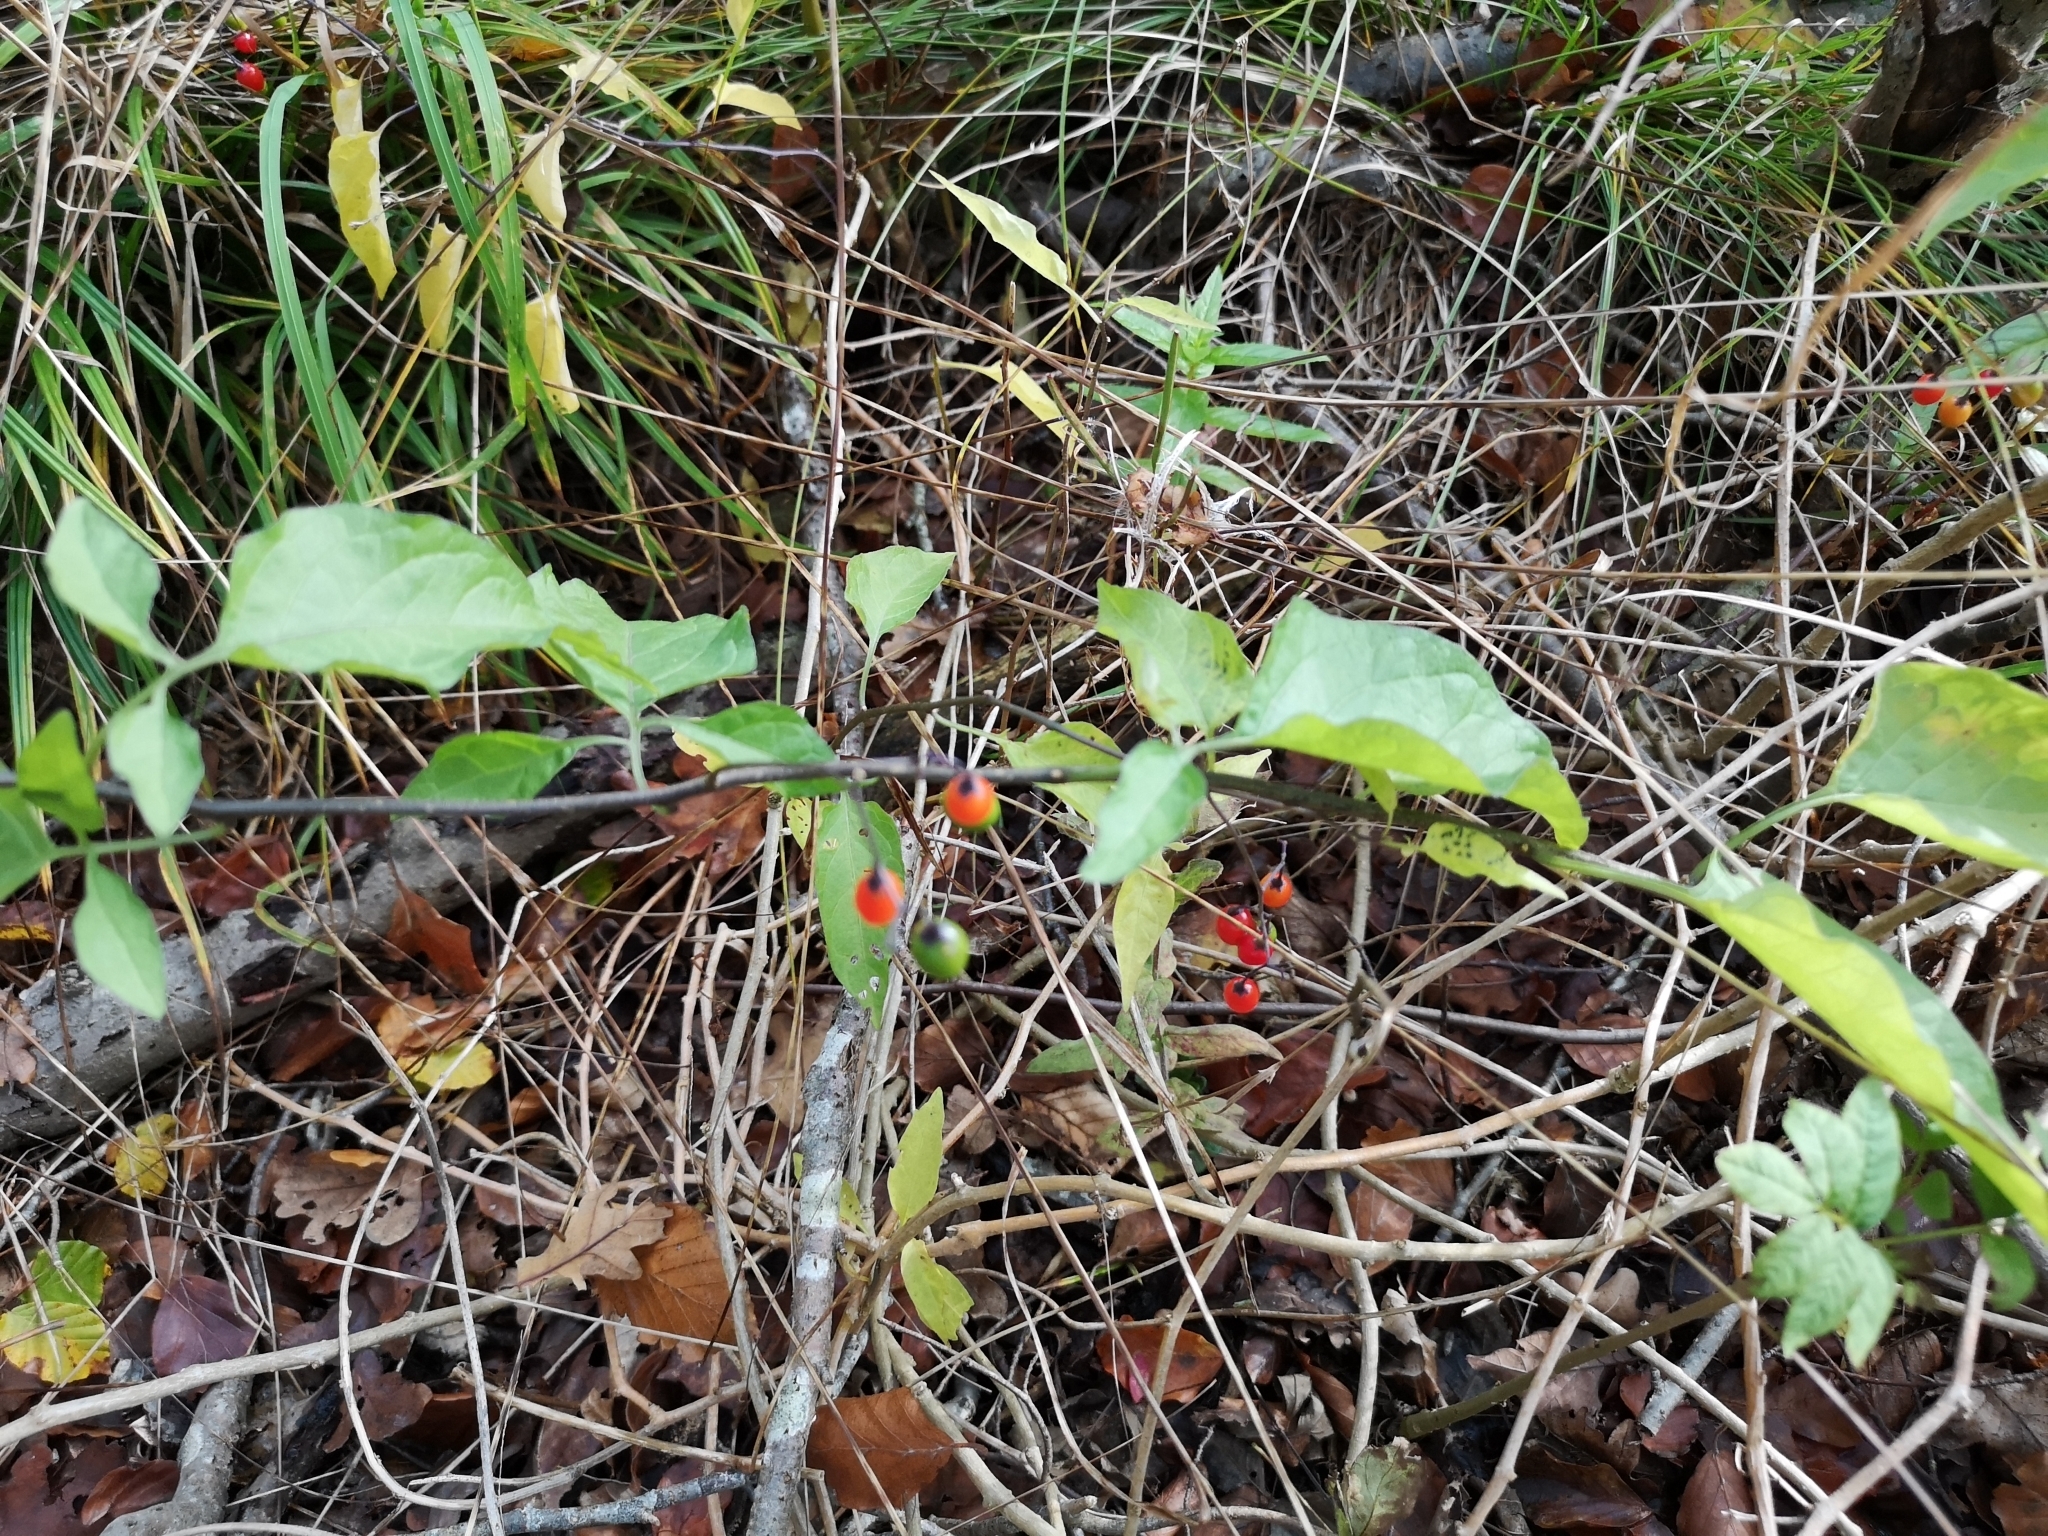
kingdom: Plantae
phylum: Tracheophyta
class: Magnoliopsida
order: Solanales
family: Solanaceae
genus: Solanum
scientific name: Solanum dulcamara
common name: Climbing nightshade
